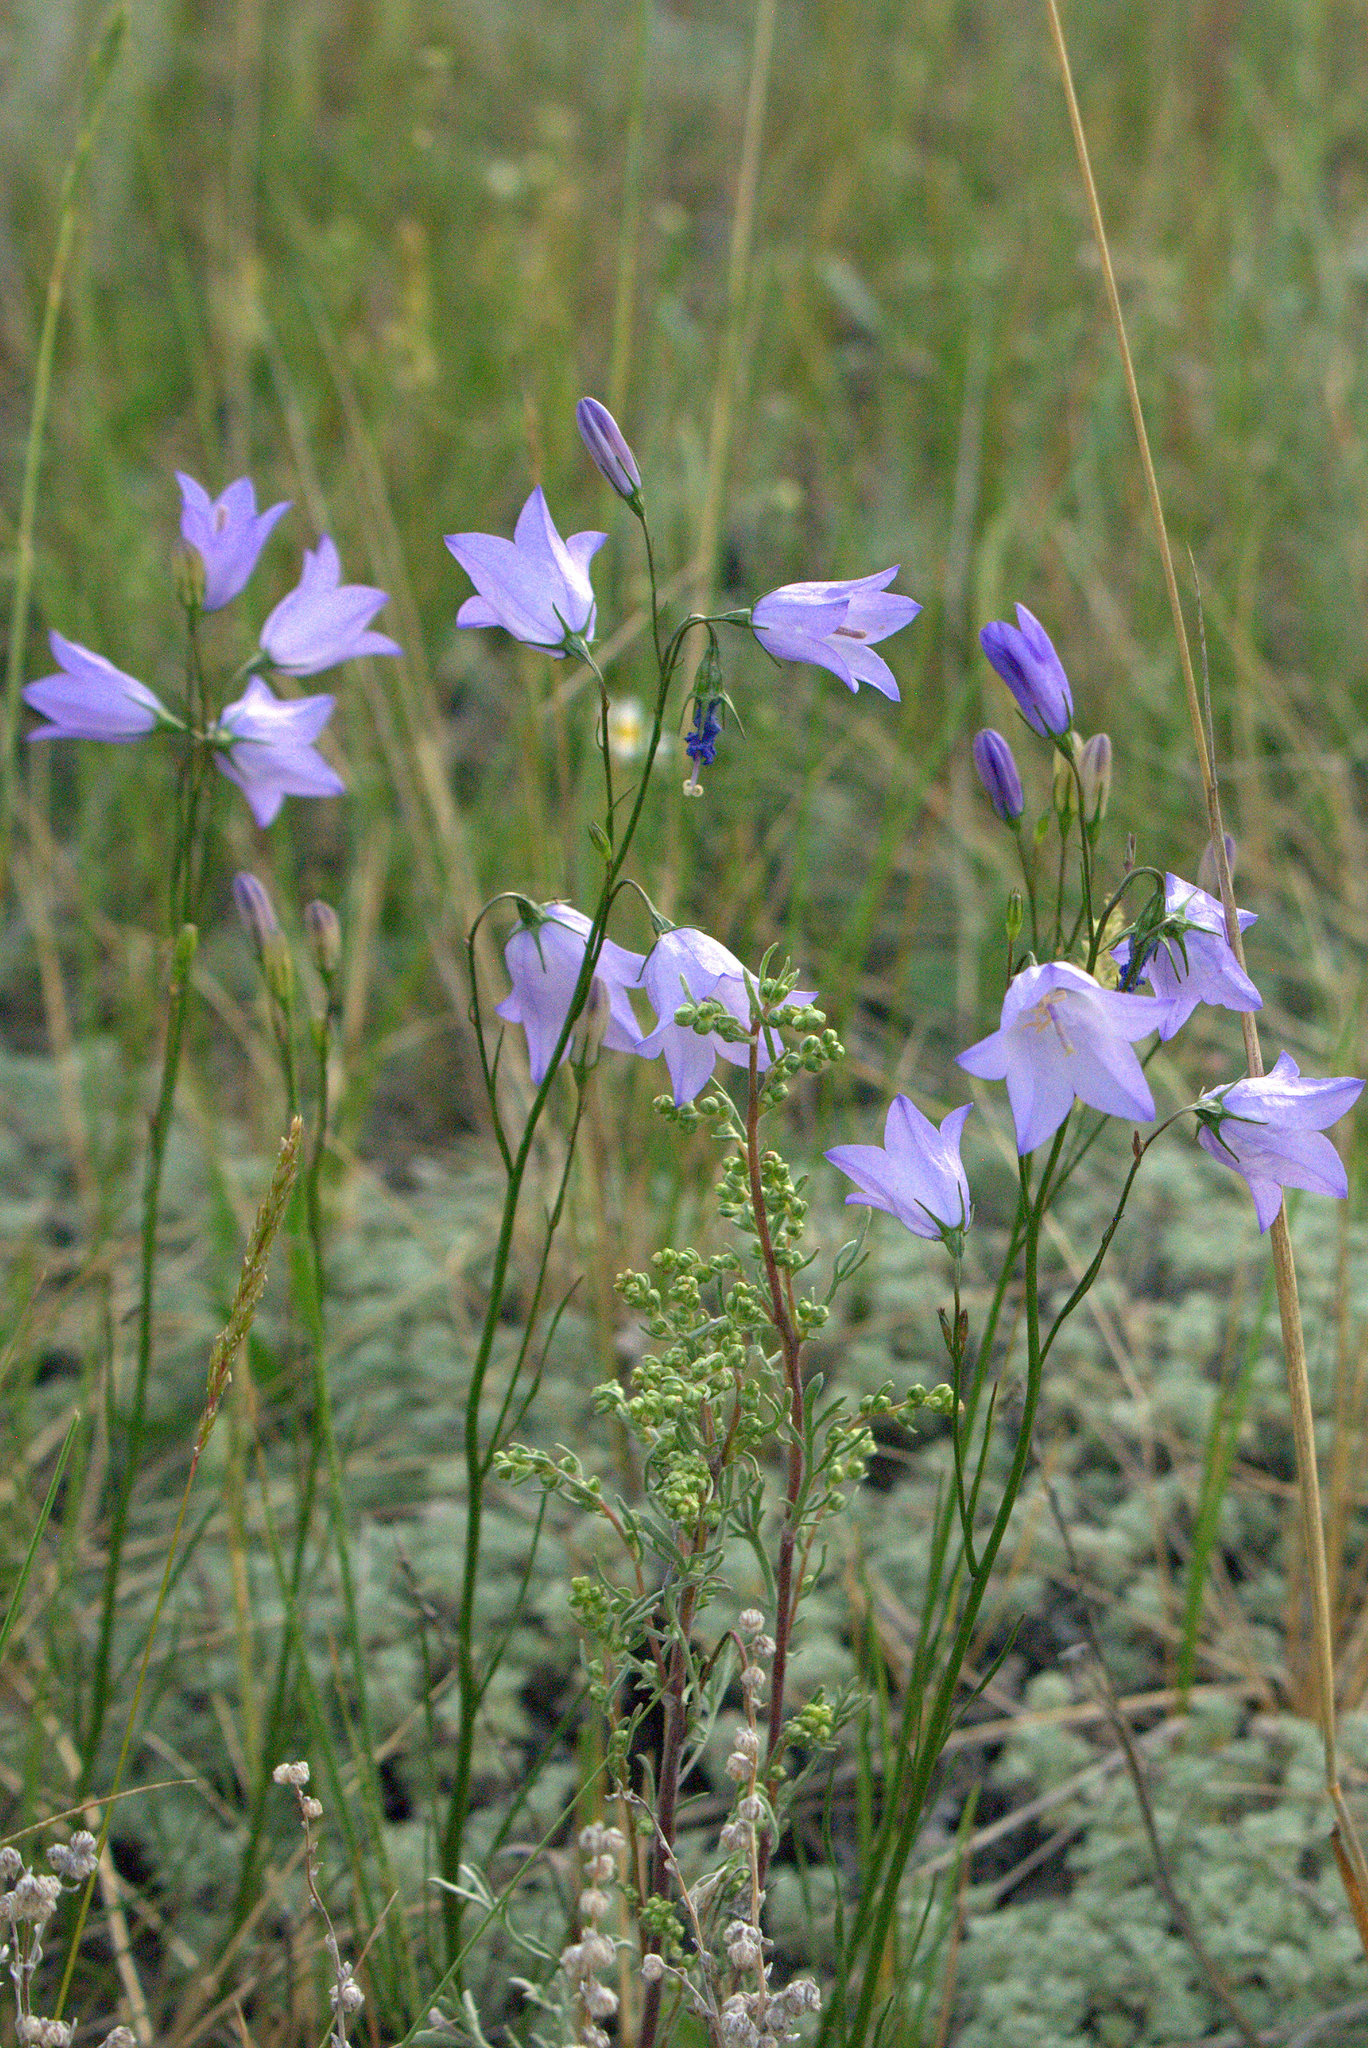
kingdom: Plantae
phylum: Tracheophyta
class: Magnoliopsida
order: Asterales
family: Campanulaceae
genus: Campanula
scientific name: Campanula alaskana
